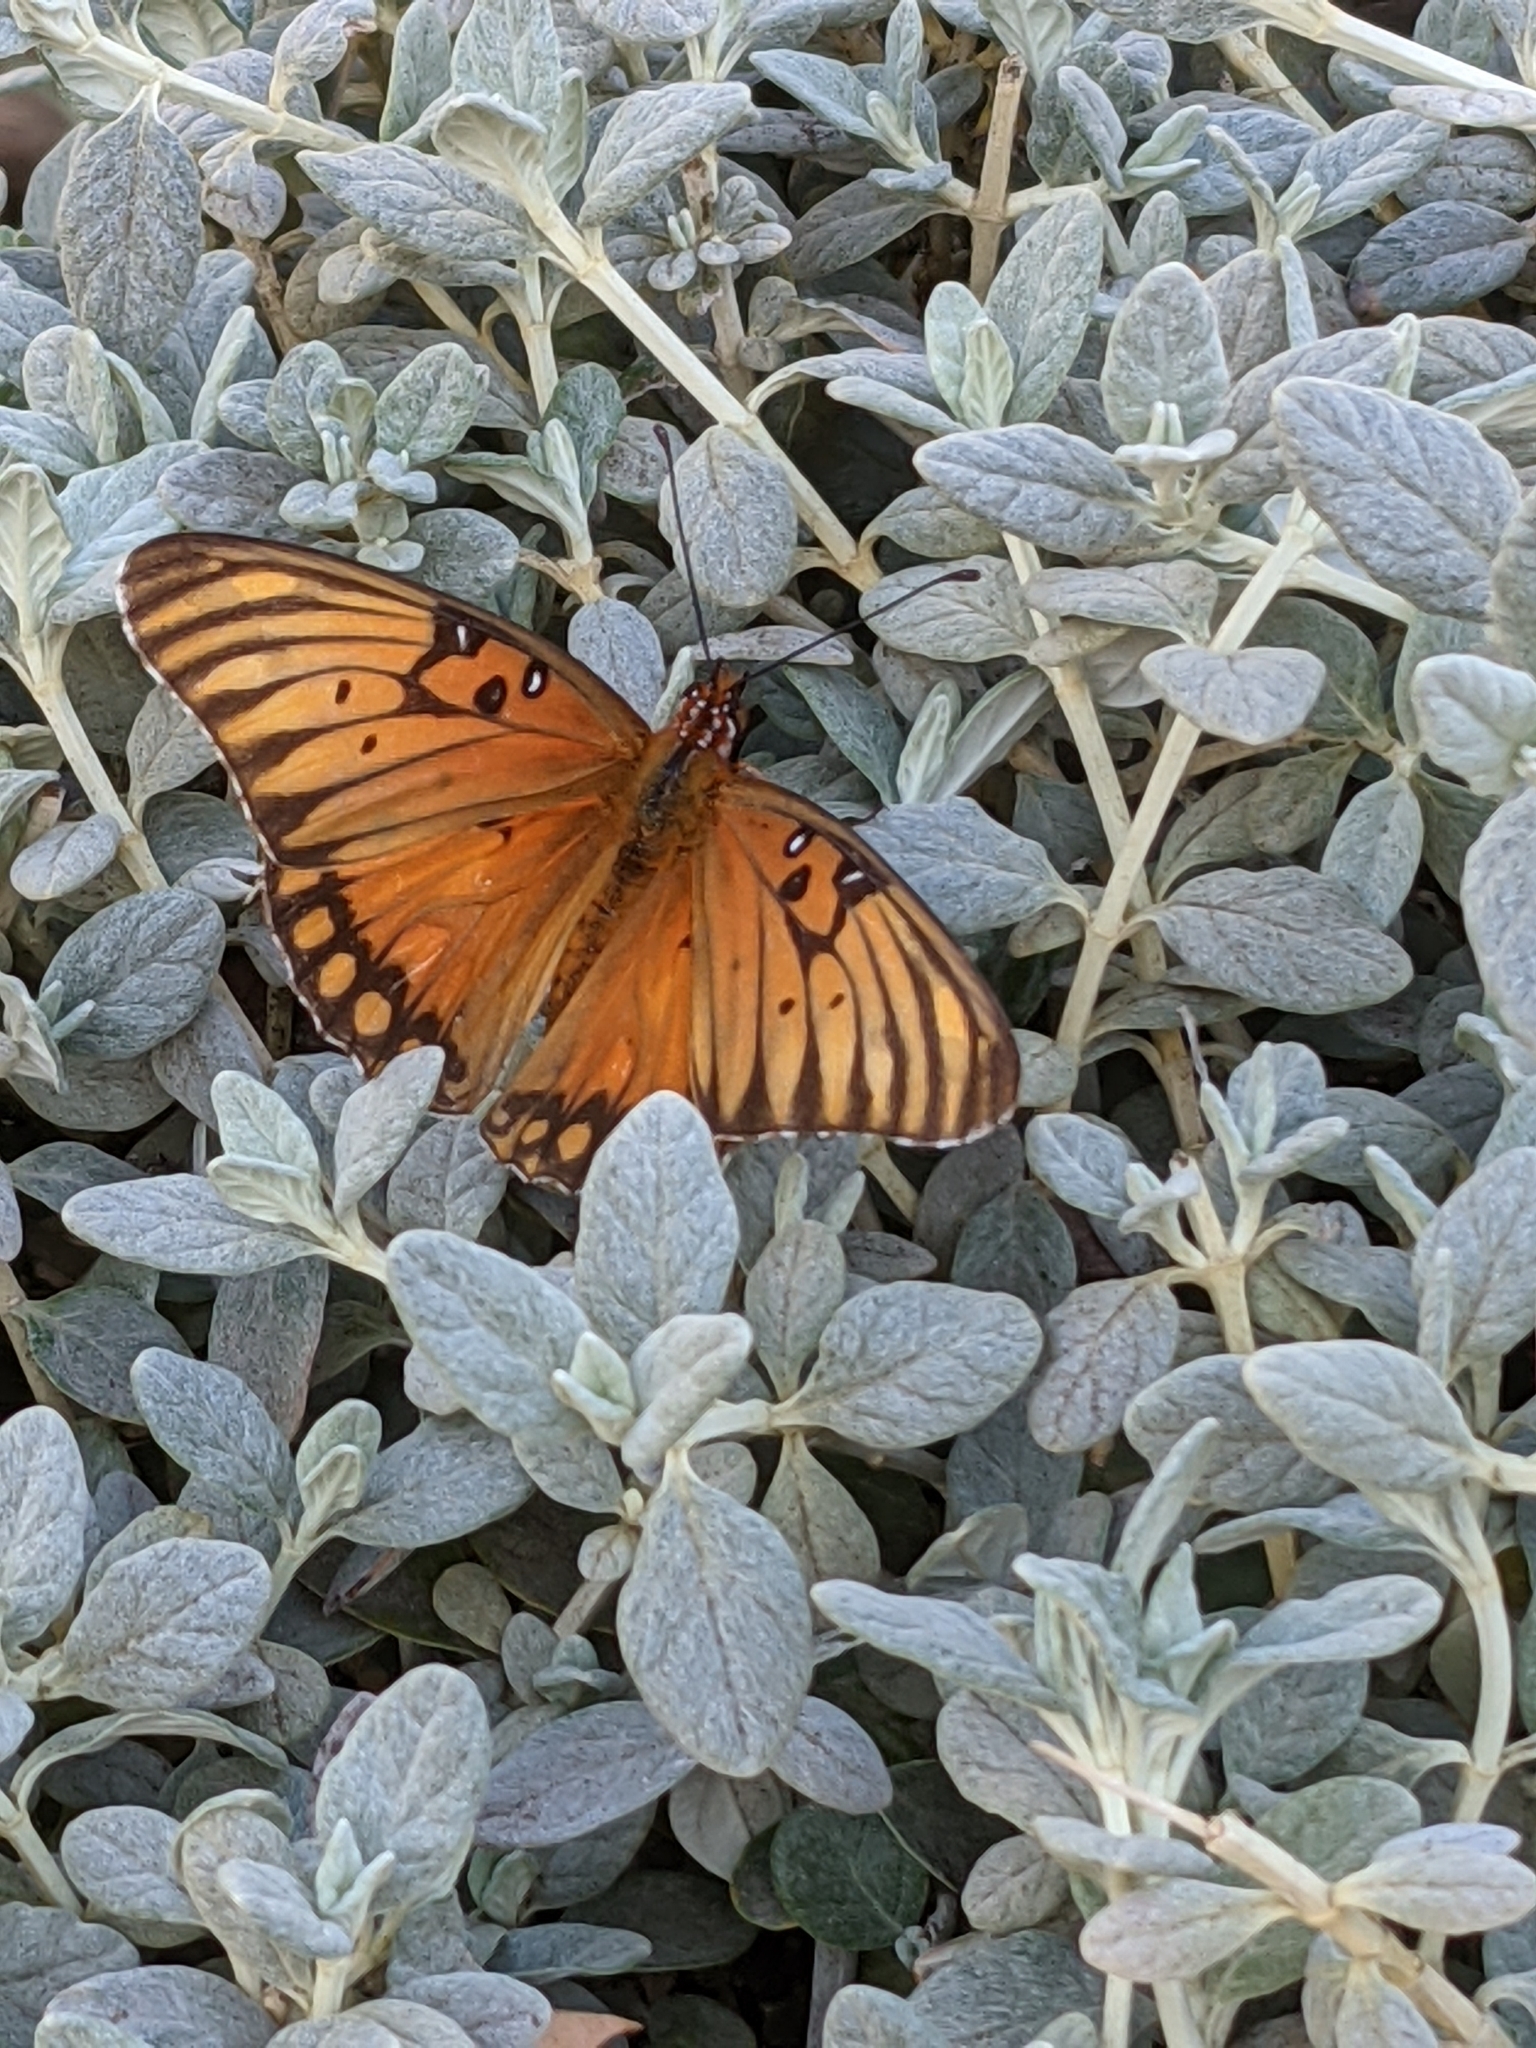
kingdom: Animalia
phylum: Arthropoda
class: Insecta
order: Lepidoptera
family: Nymphalidae
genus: Dione
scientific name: Dione vanillae
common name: Gulf fritillary
